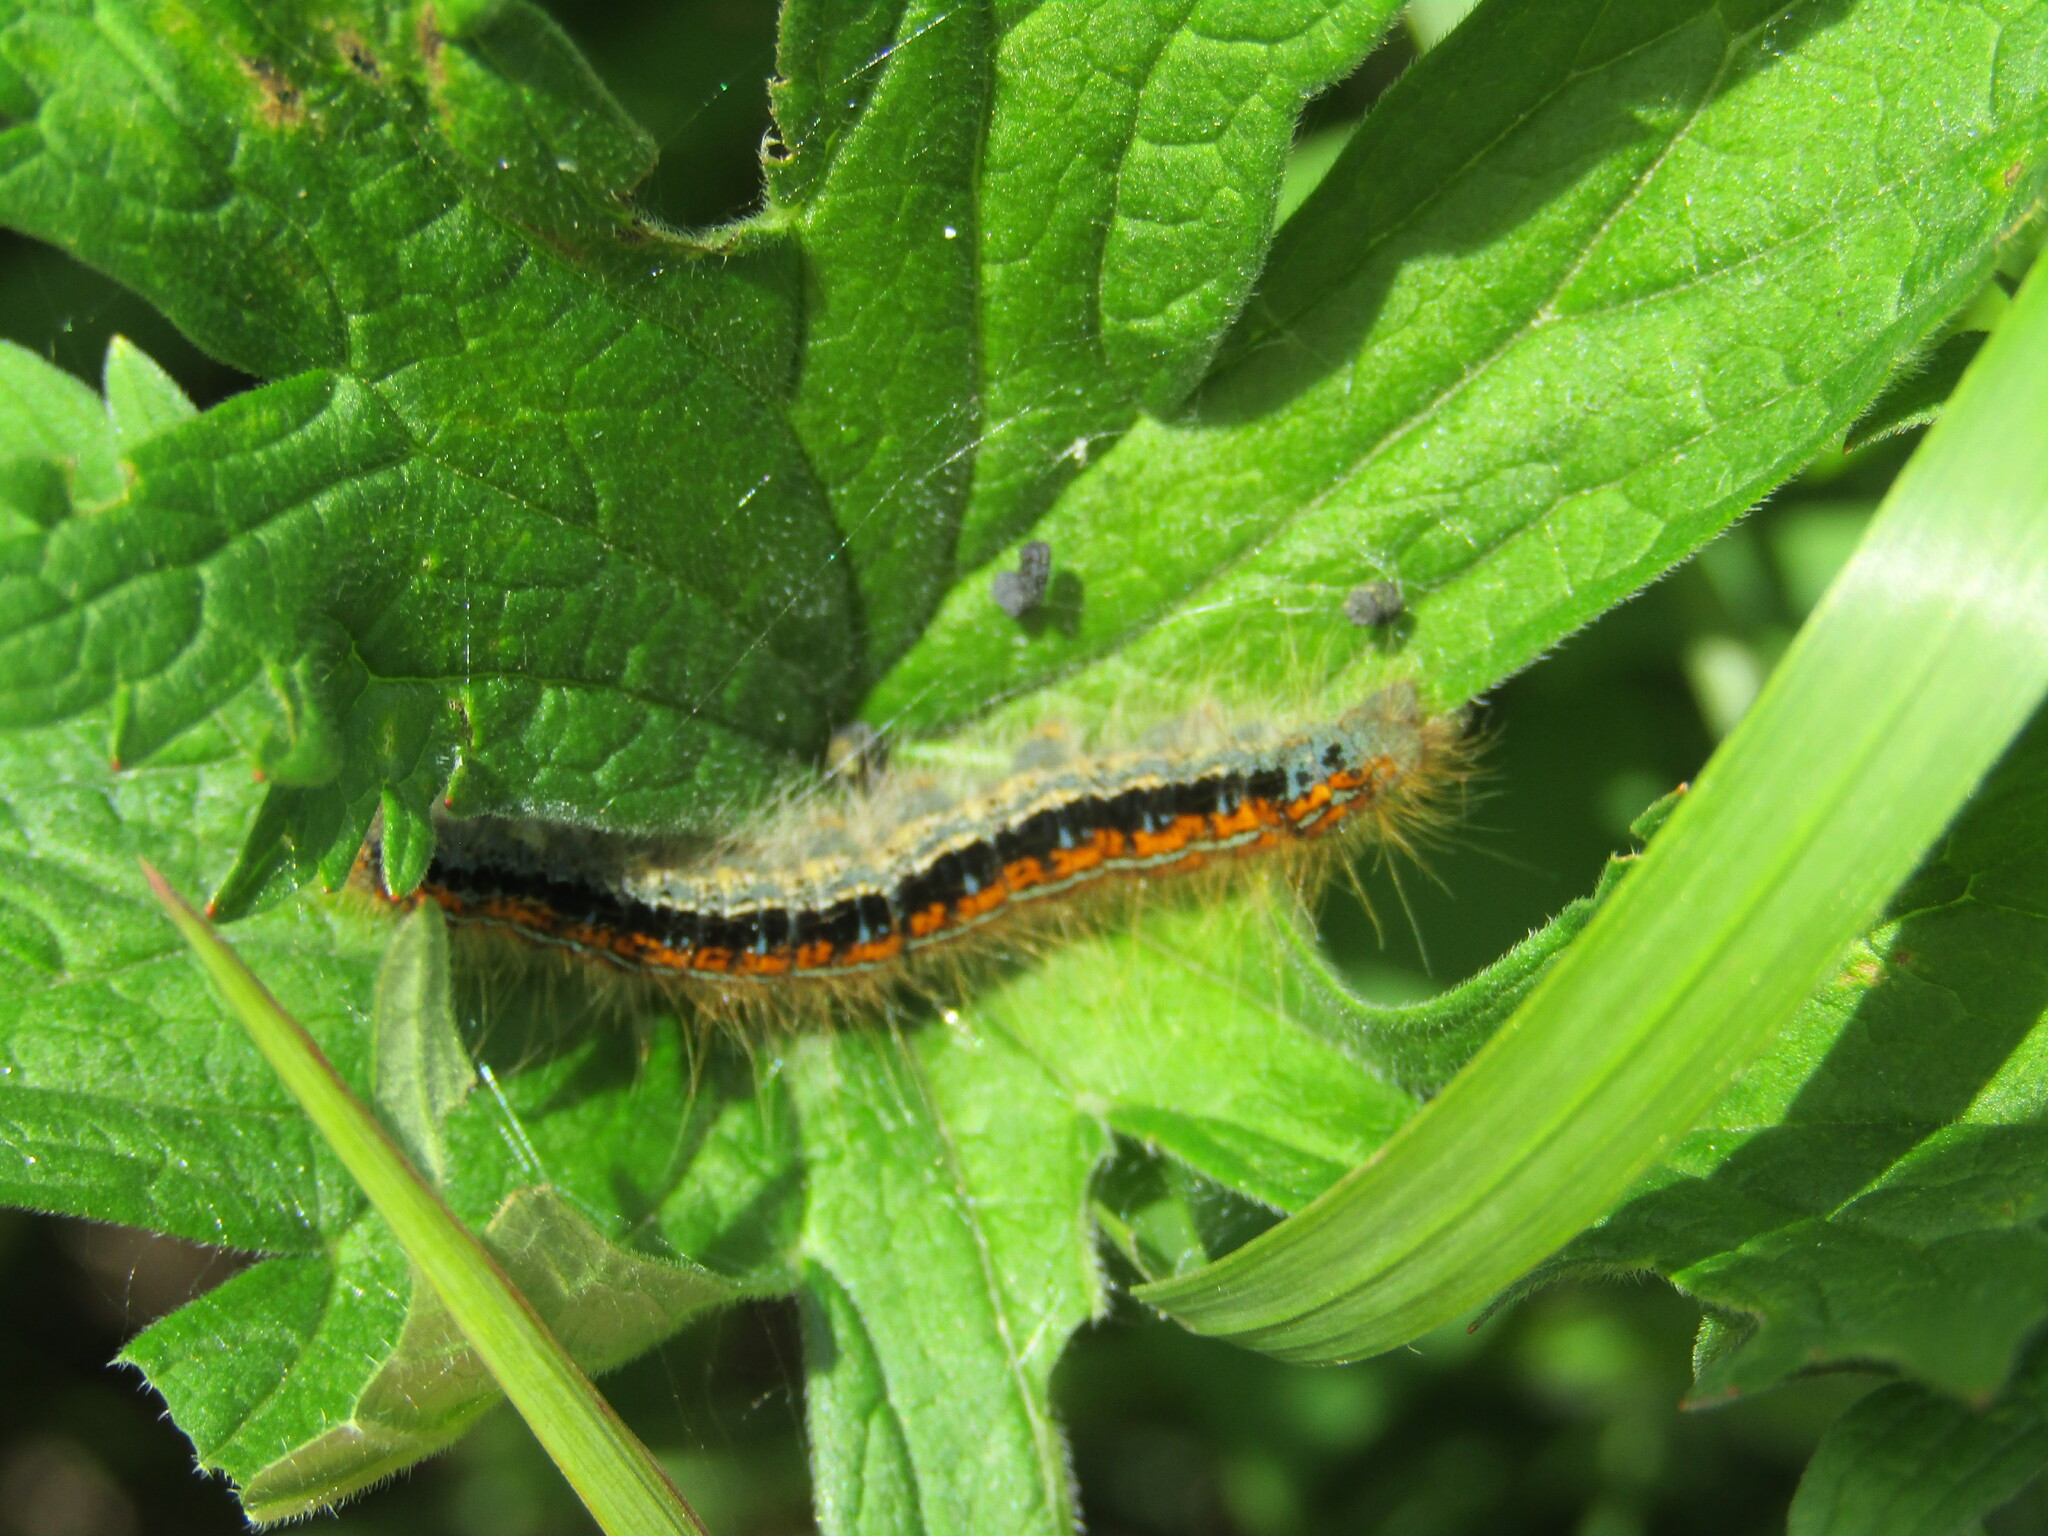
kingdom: Animalia
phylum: Arthropoda
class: Insecta
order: Lepidoptera
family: Lasiocampidae
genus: Malacosoma
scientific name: Malacosoma castrense
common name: Ground lackey
